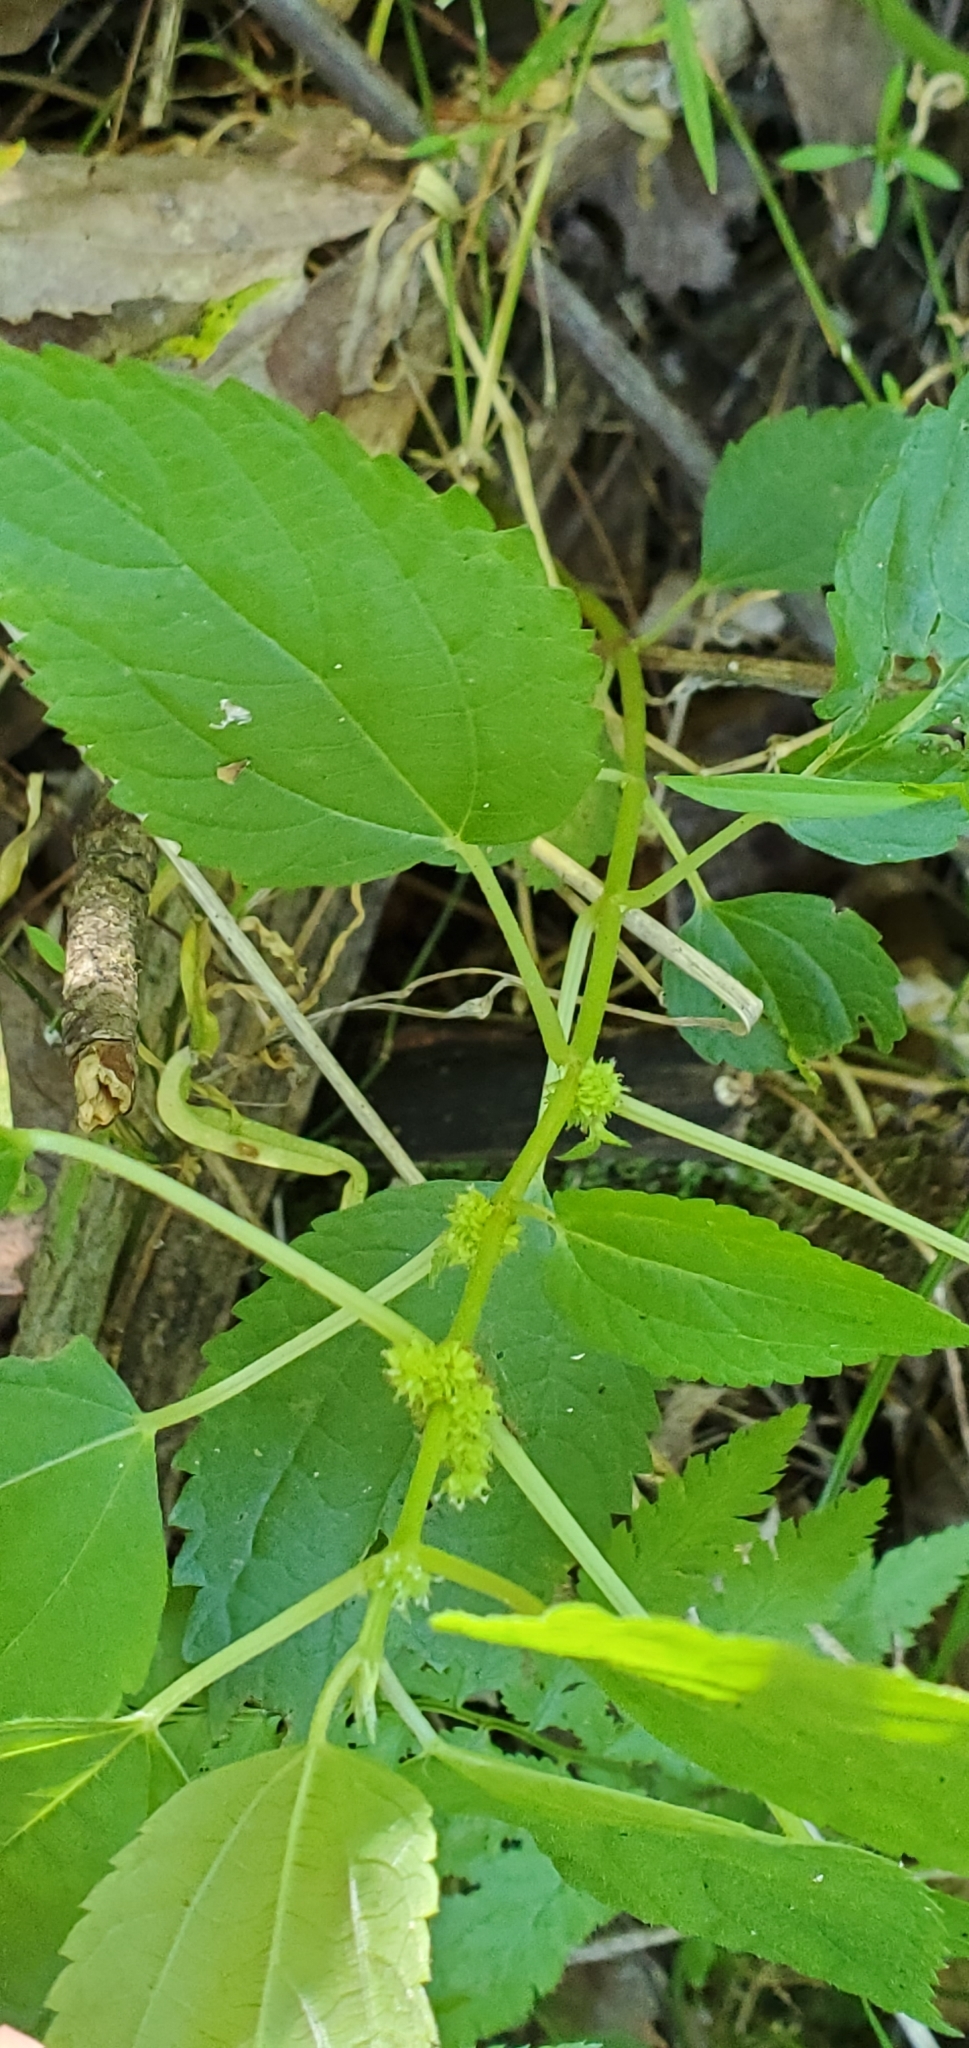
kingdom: Plantae
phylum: Tracheophyta
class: Magnoliopsida
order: Rosales
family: Urticaceae
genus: Boehmeria
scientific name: Boehmeria cylindrica
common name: Bog-hemp
